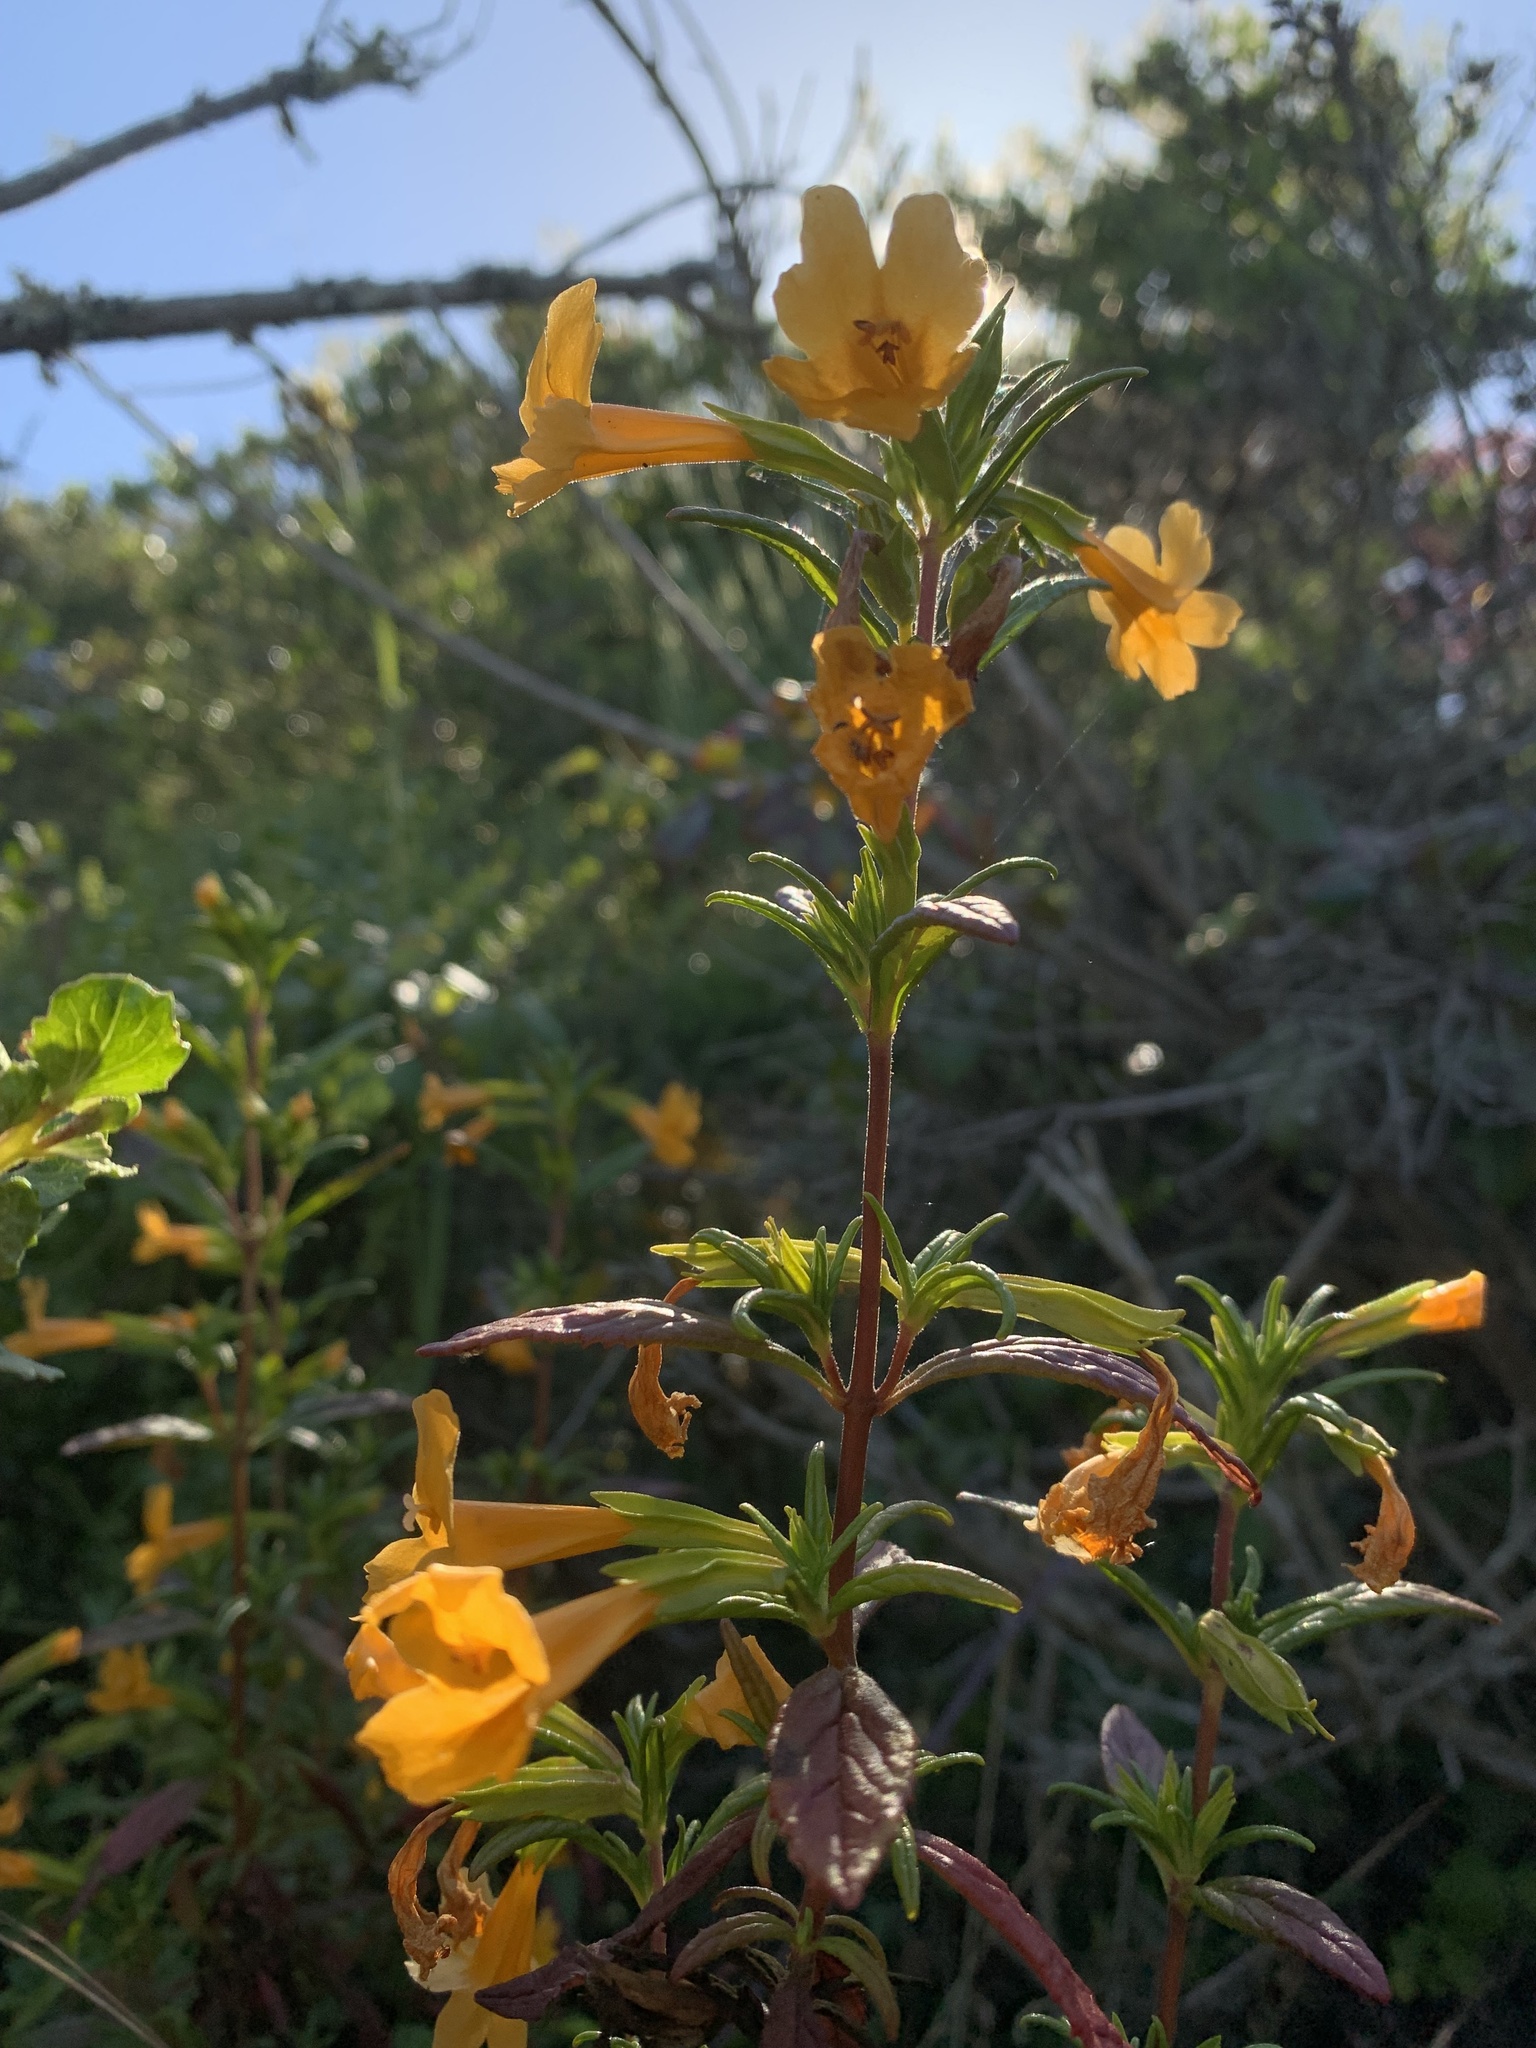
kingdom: Plantae
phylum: Tracheophyta
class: Magnoliopsida
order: Lamiales
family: Phrymaceae
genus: Diplacus
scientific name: Diplacus aurantiacus
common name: Bush monkey-flower
